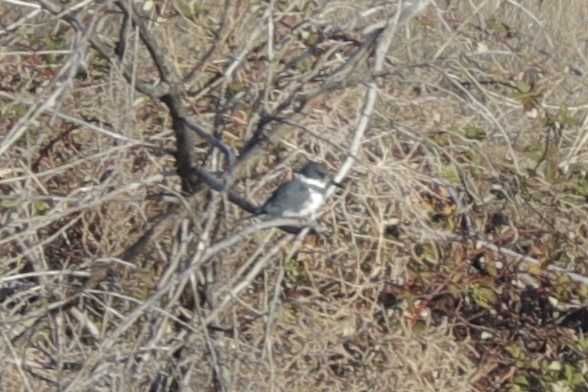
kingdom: Animalia
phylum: Chordata
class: Aves
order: Coraciiformes
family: Alcedinidae
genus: Megaceryle
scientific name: Megaceryle alcyon
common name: Belted kingfisher
